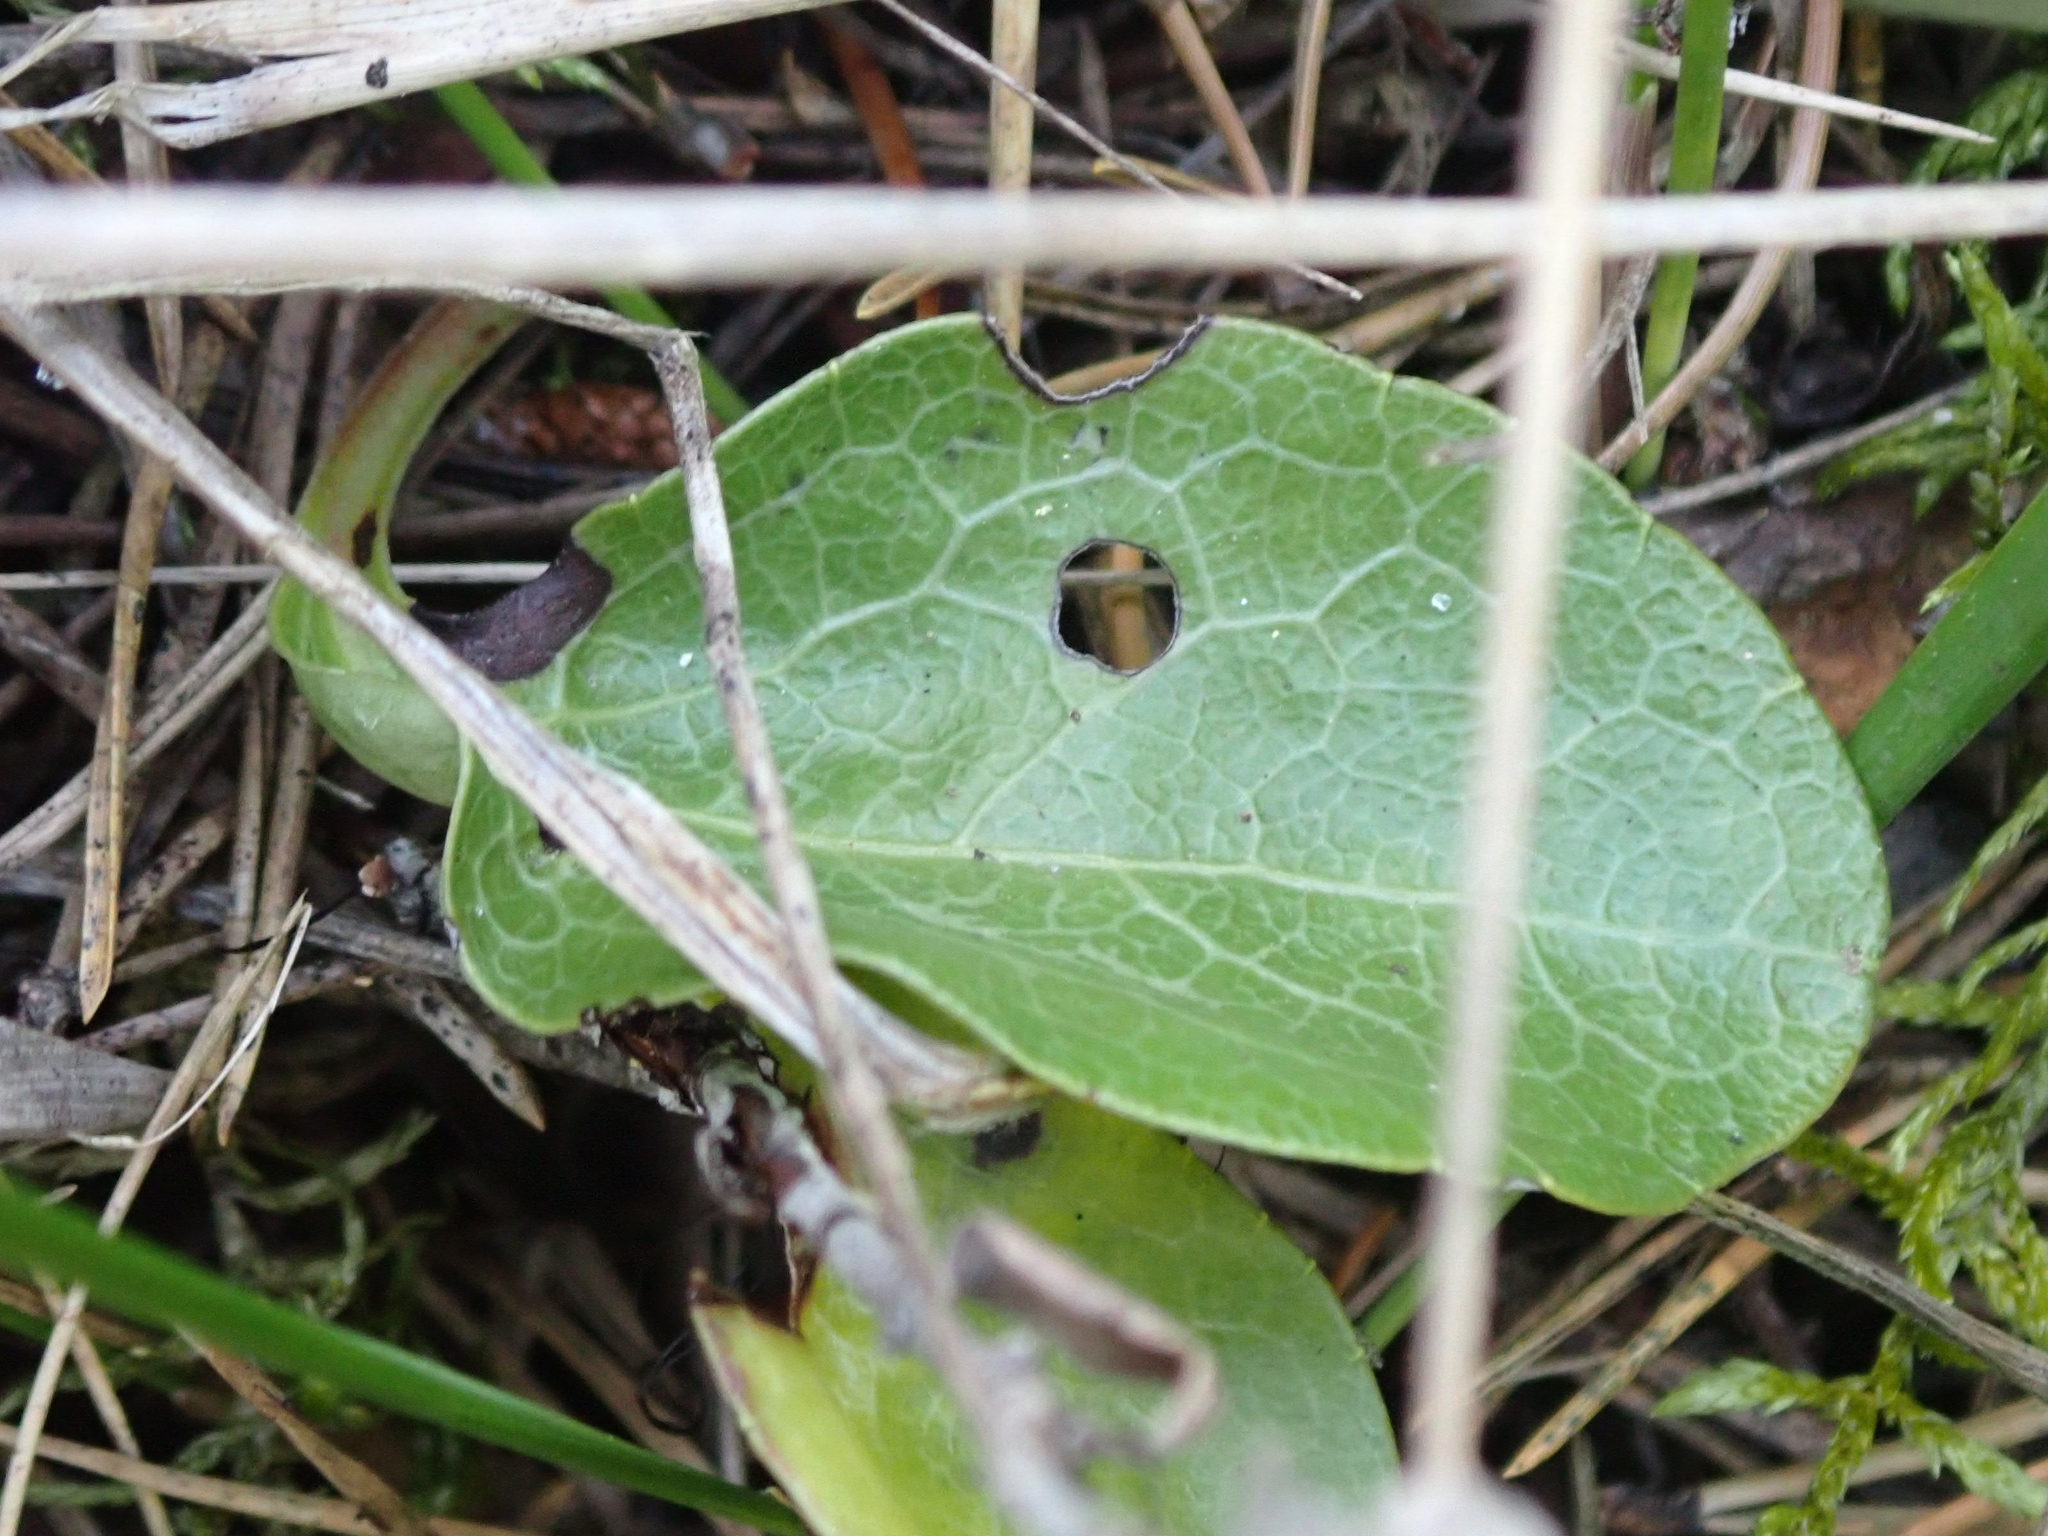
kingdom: Plantae
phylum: Tracheophyta
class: Magnoliopsida
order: Ericales
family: Ericaceae
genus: Pyrola
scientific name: Pyrola americana
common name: American wintergreen
